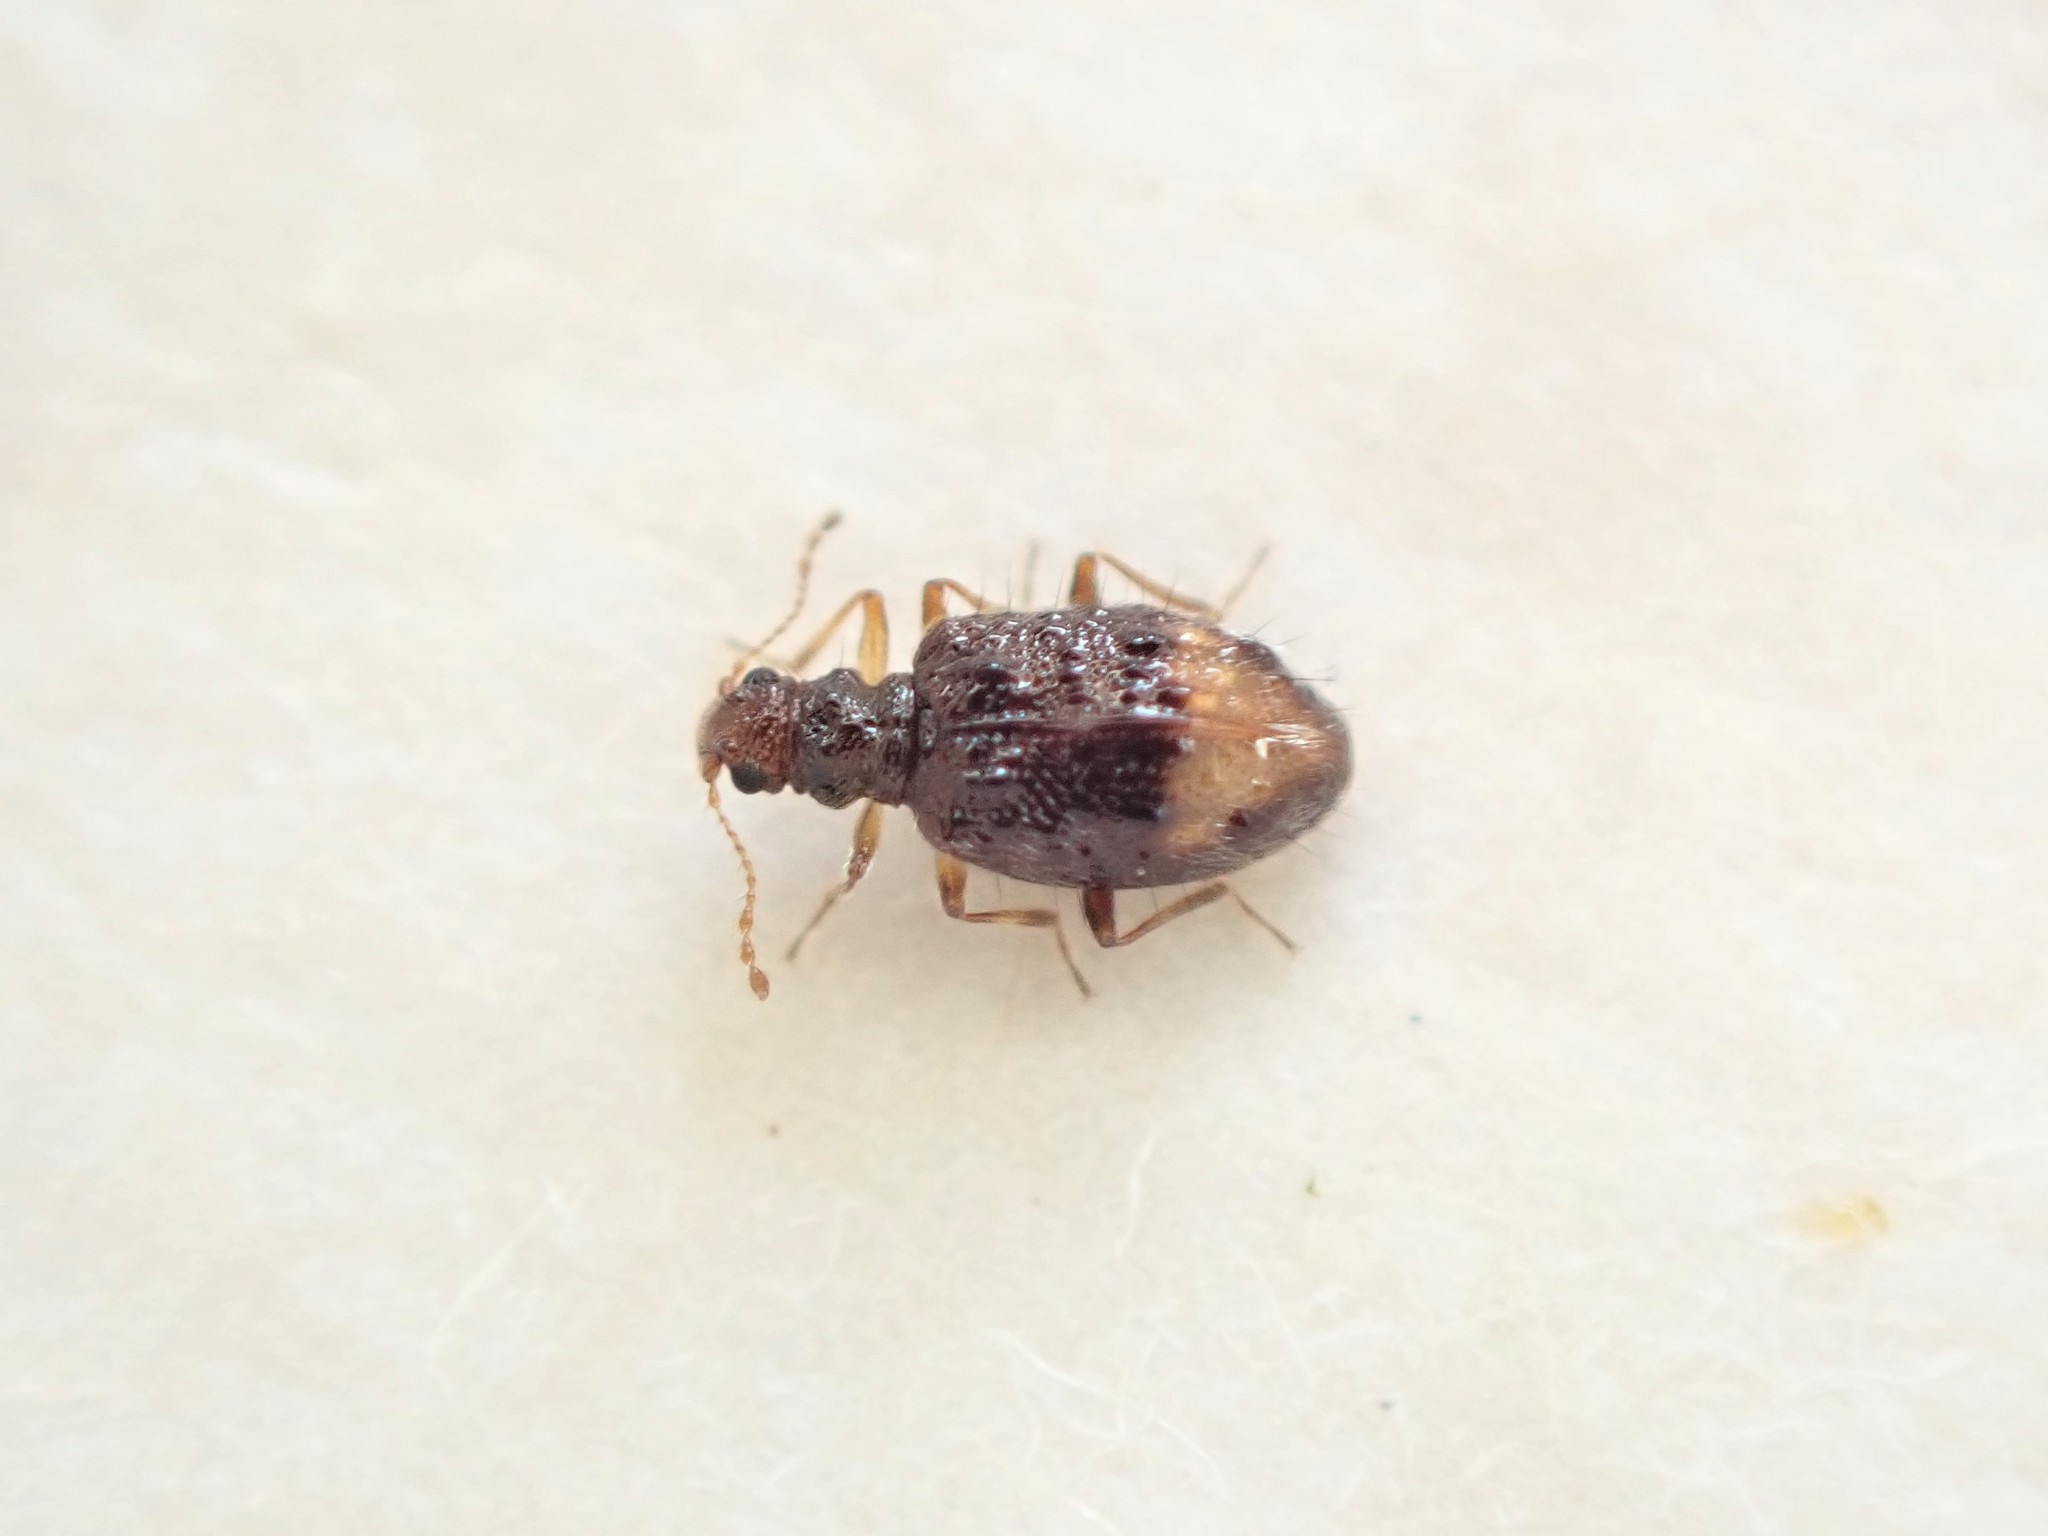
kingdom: Animalia
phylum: Arthropoda
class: Insecta
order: Coleoptera
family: Latridiidae
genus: Rethusus
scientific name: Rethusus
